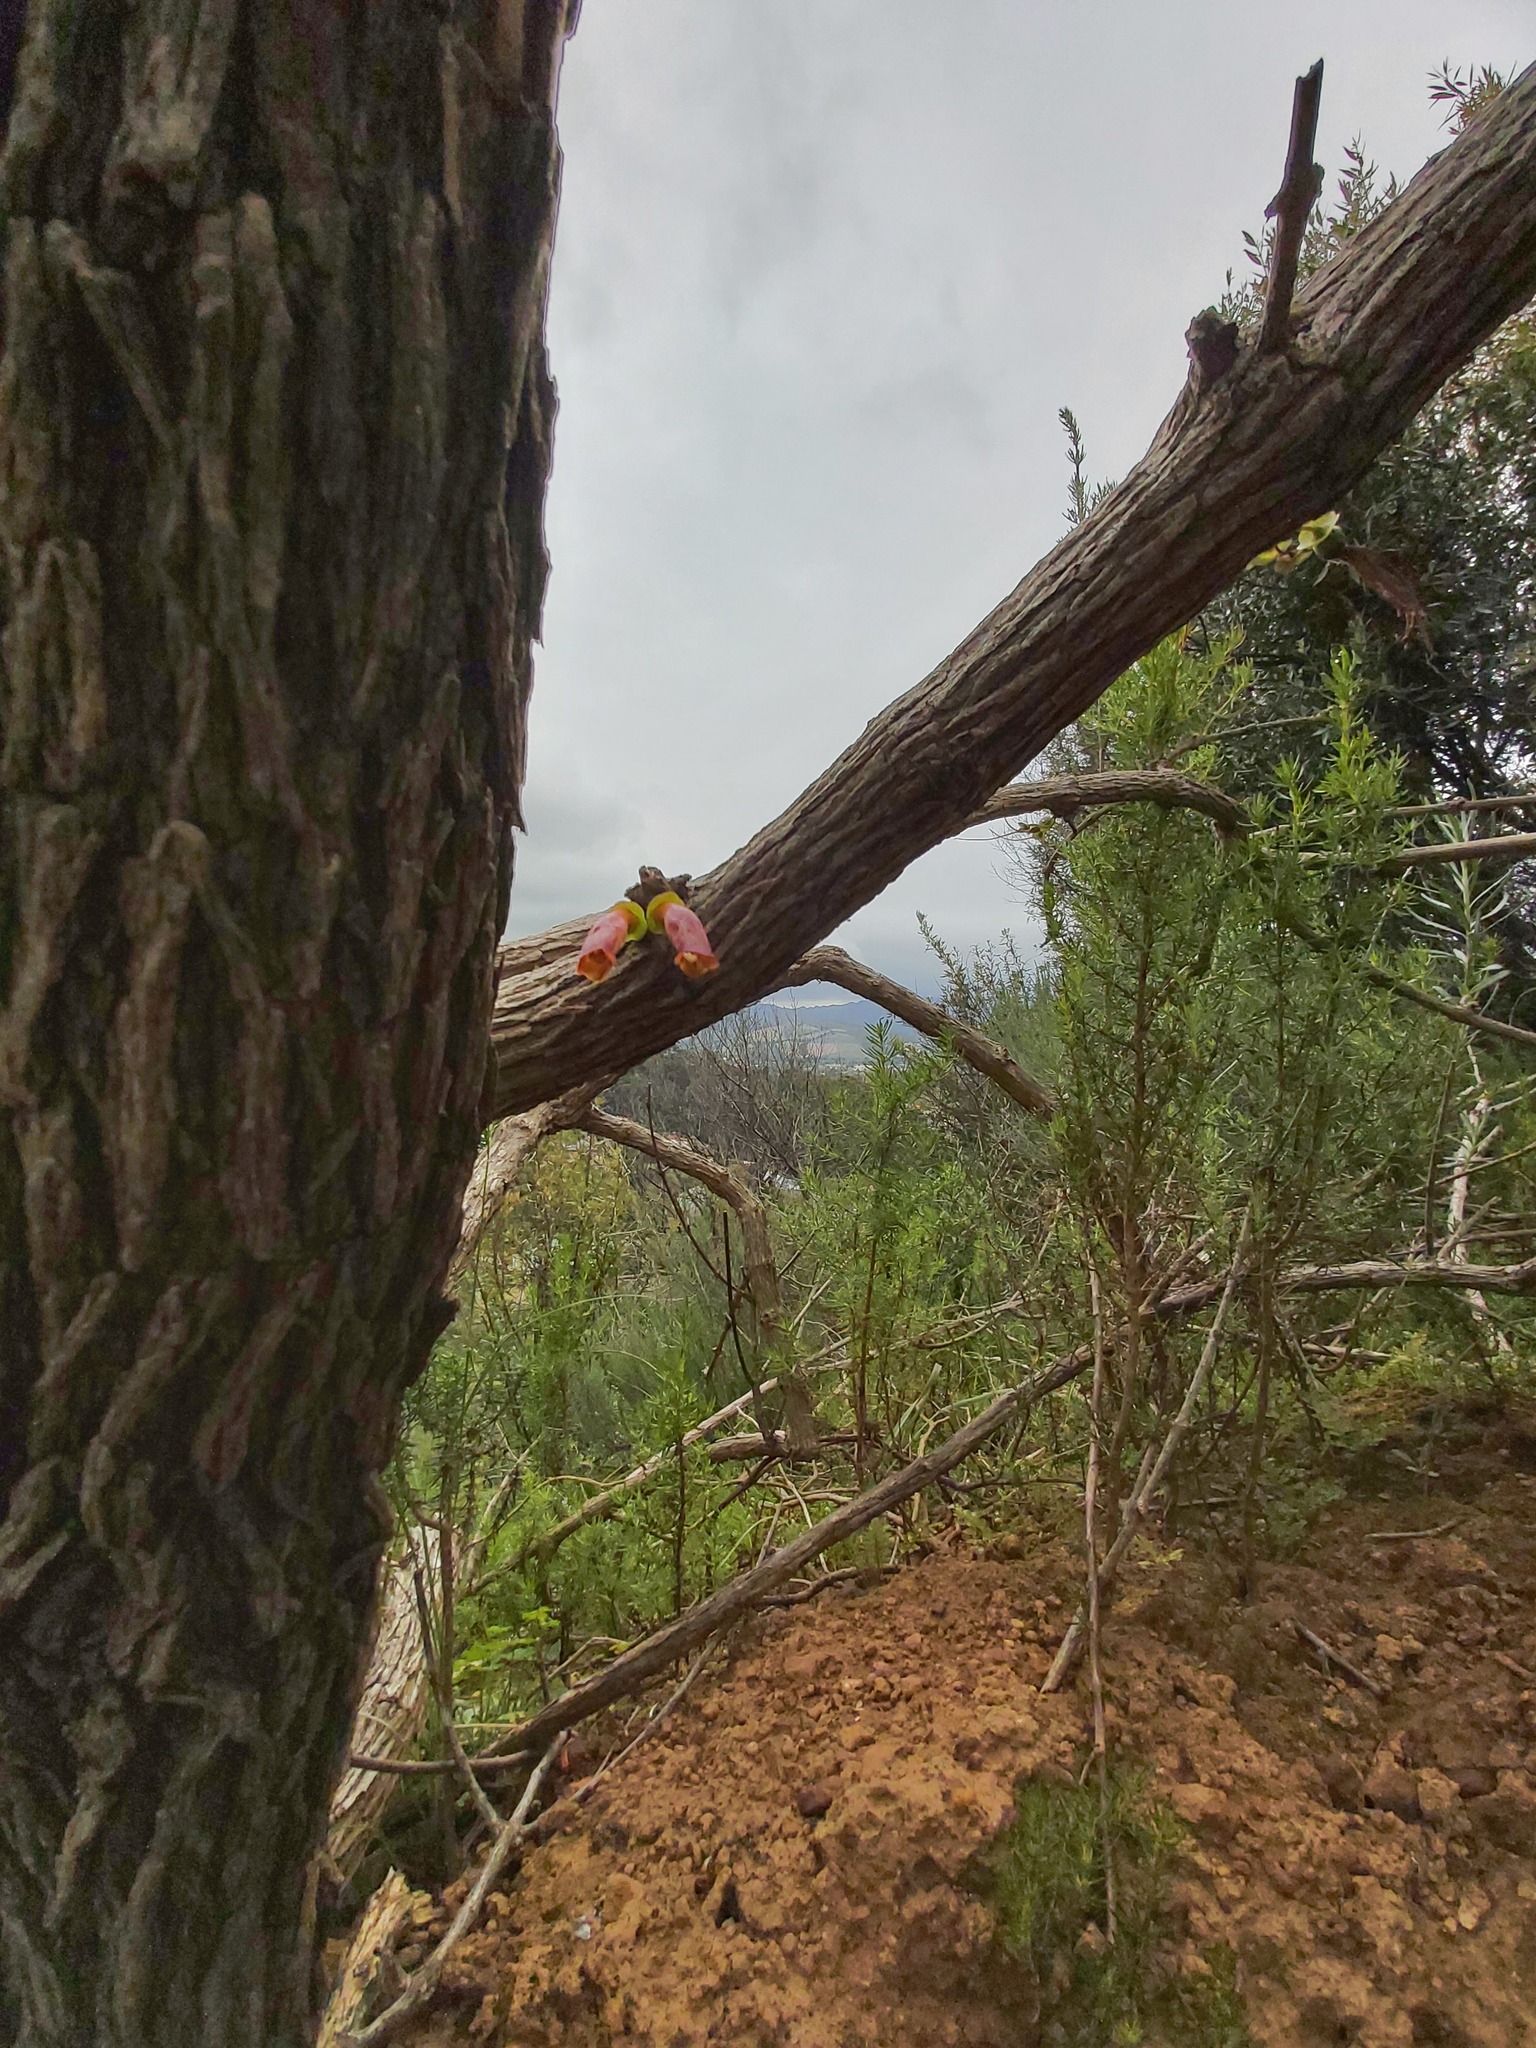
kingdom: Plantae
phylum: Tracheophyta
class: Magnoliopsida
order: Lamiales
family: Stilbaceae
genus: Halleria
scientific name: Halleria lucida
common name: Tree fuschia
